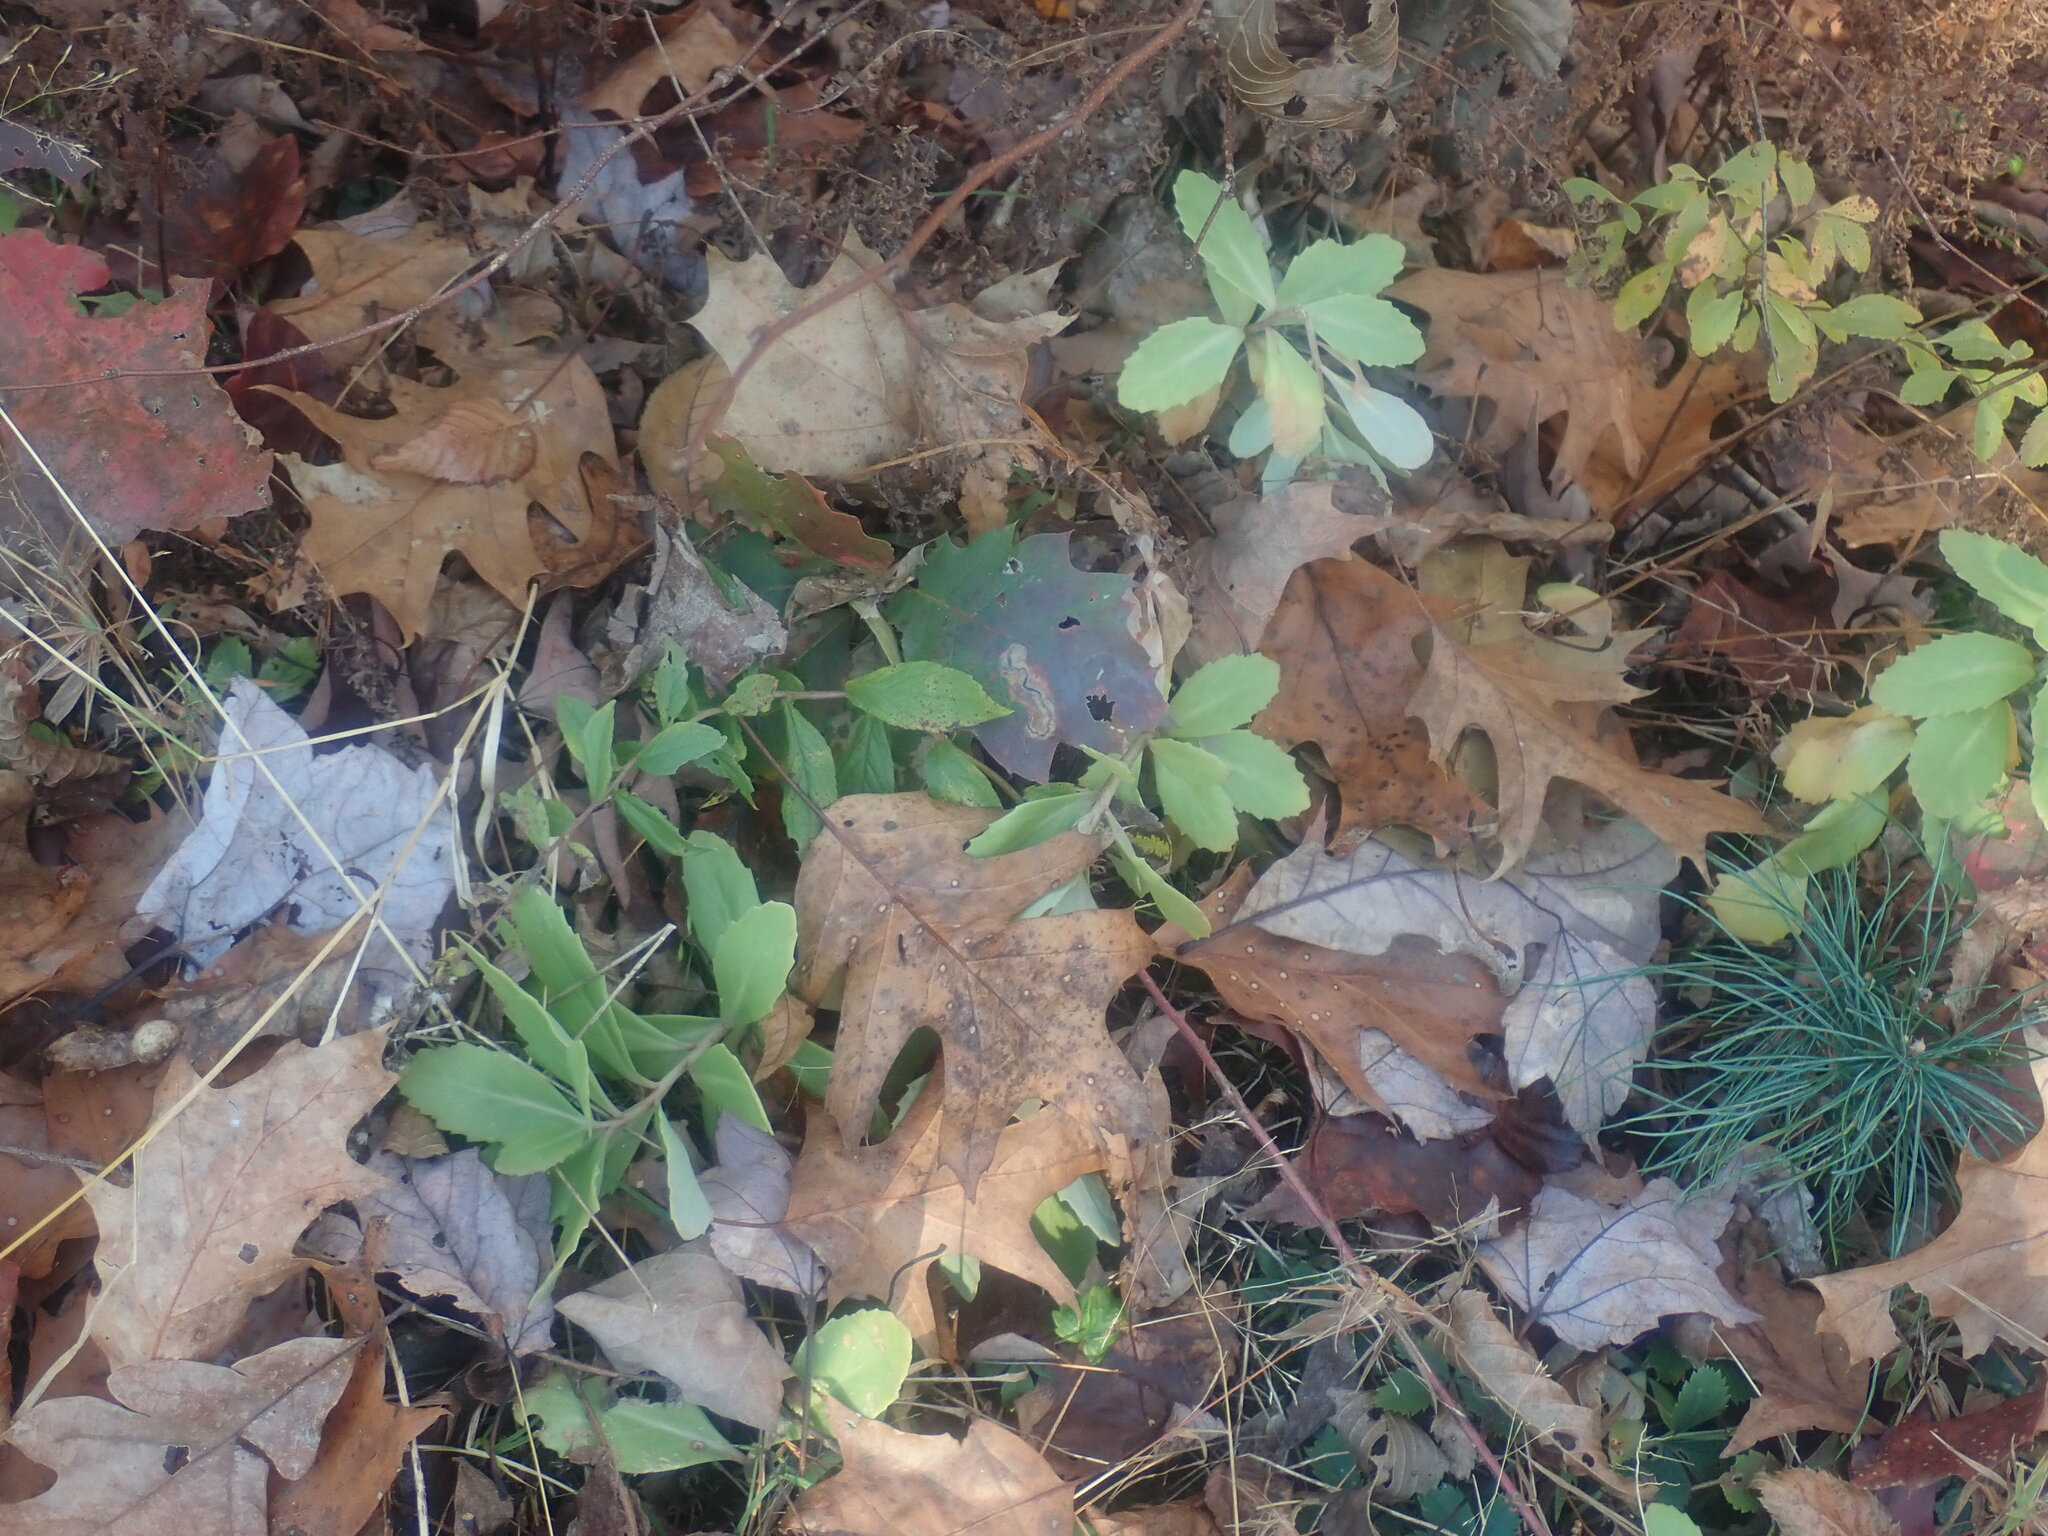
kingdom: Plantae
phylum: Tracheophyta
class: Magnoliopsida
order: Saxifragales
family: Crassulaceae
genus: Hylotelephium
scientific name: Hylotelephium telephium
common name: Live-forever
